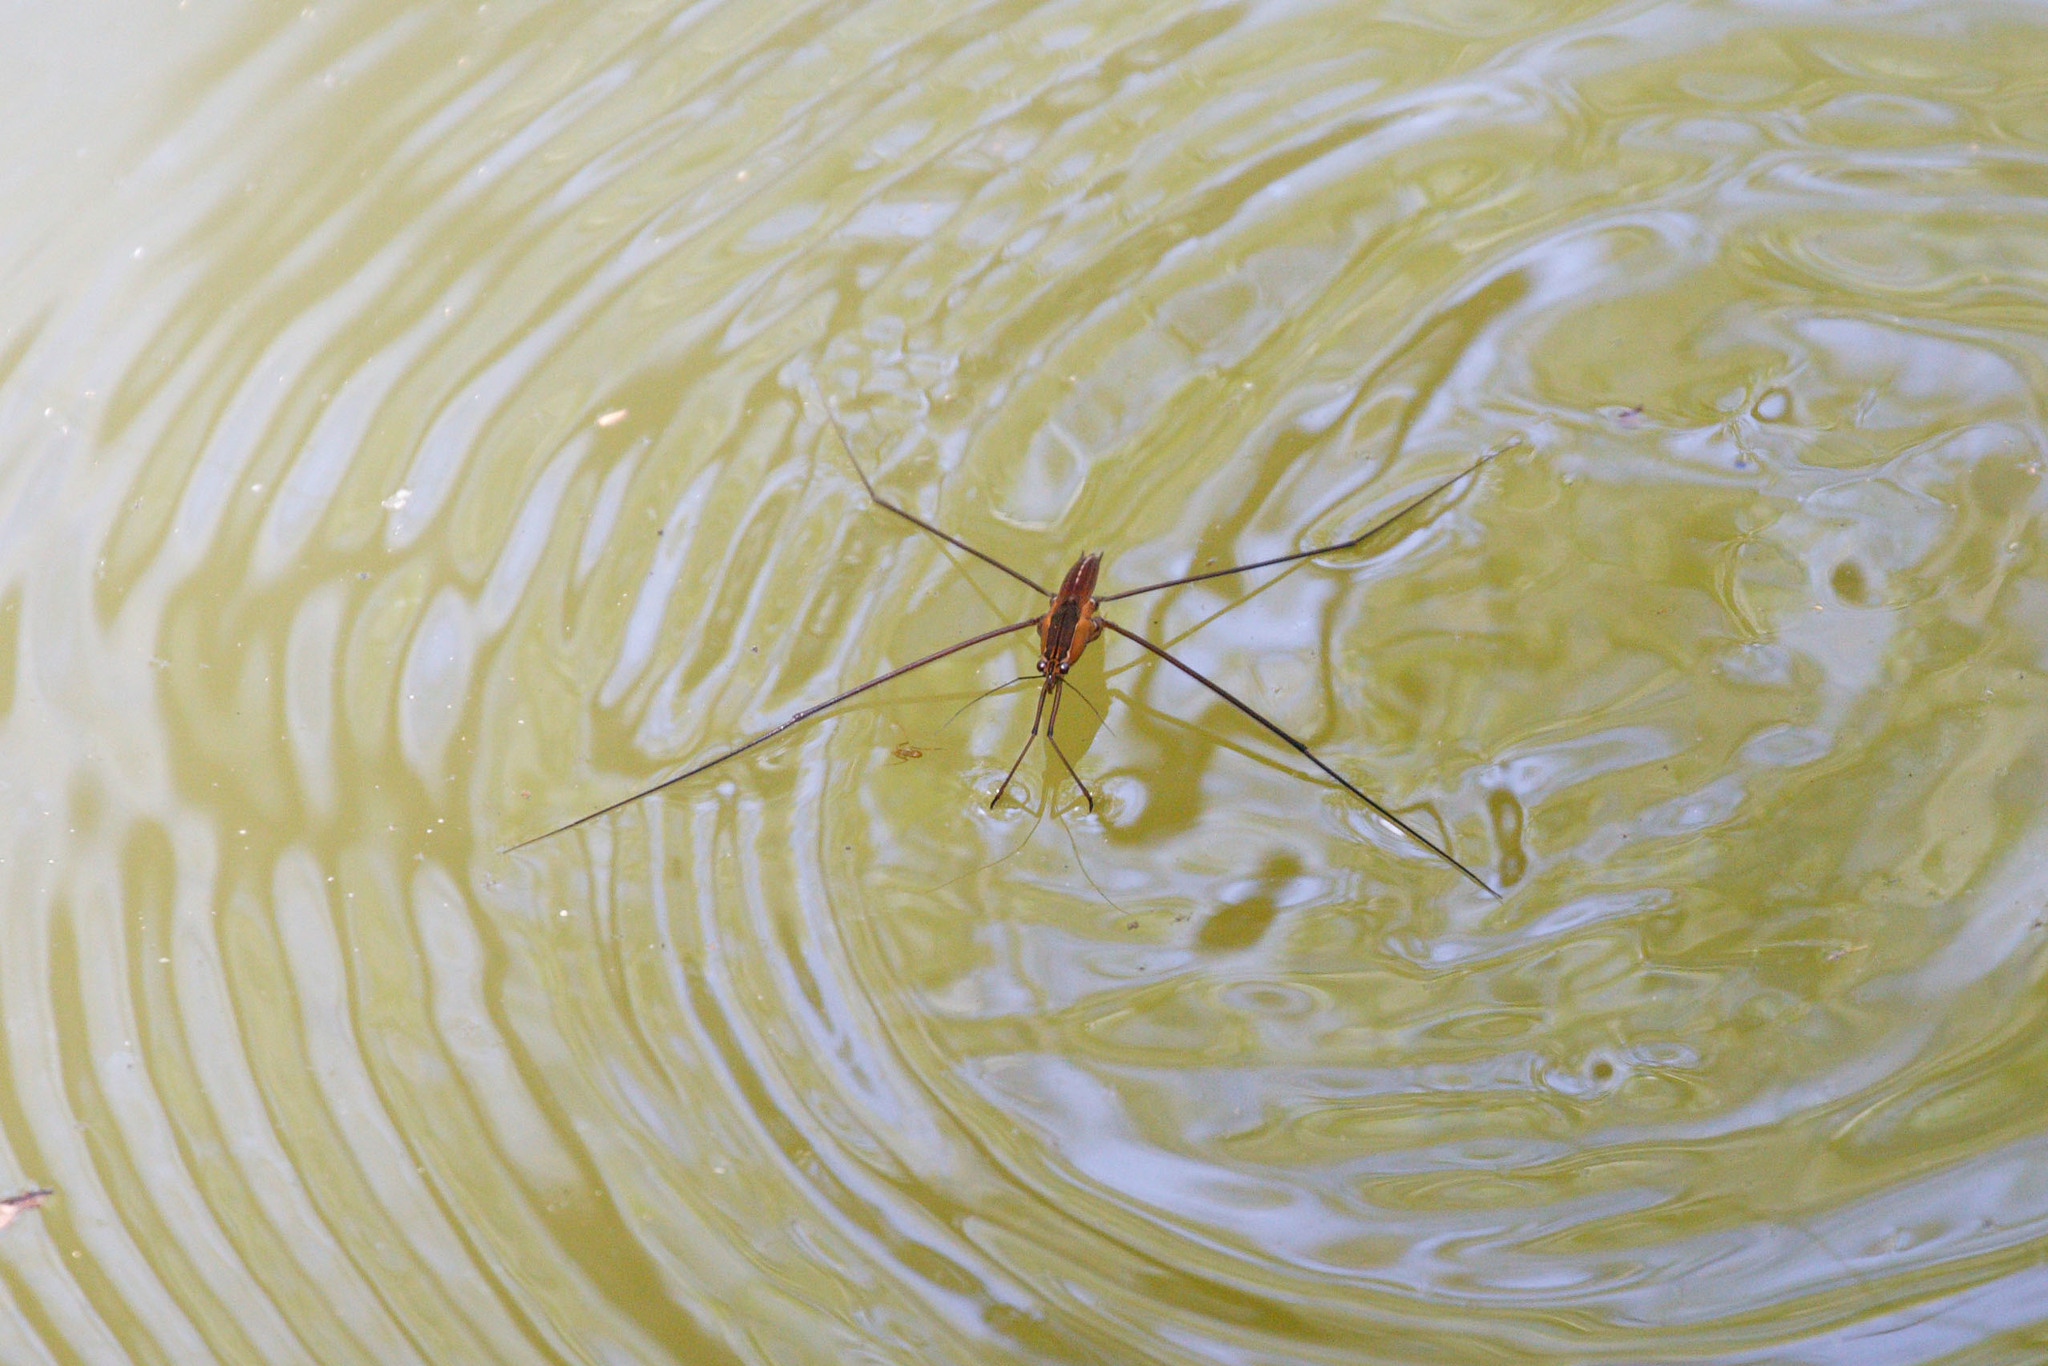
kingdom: Animalia
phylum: Arthropoda
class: Insecta
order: Hemiptera
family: Gerridae
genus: Limnometra
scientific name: Limnometra cursitans
